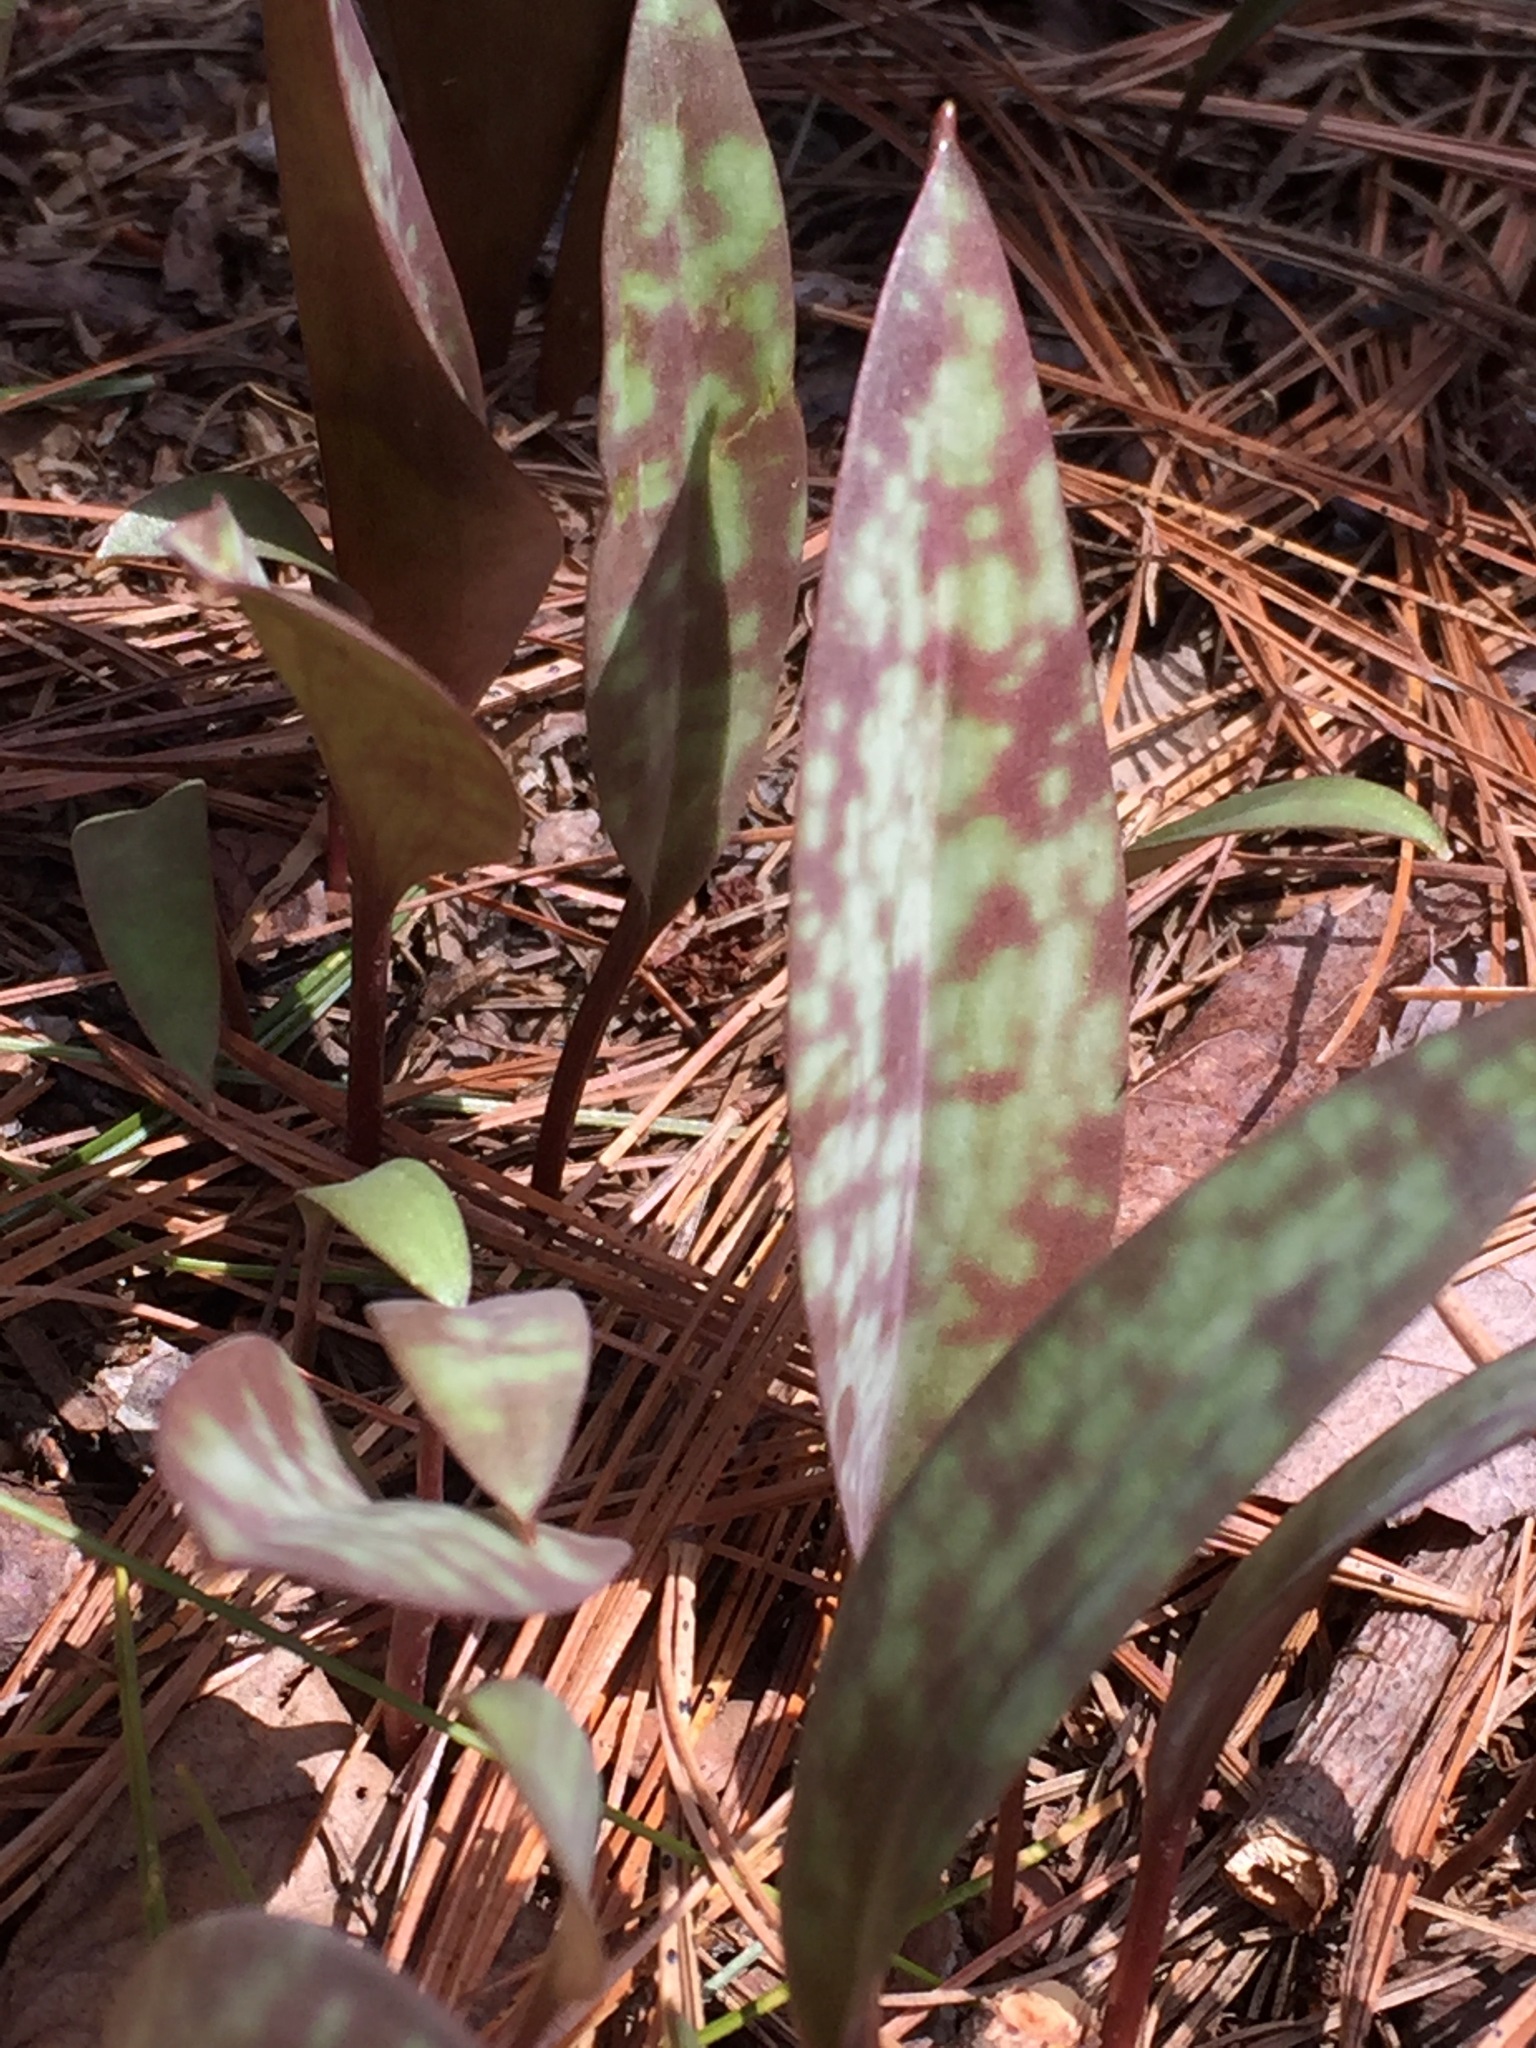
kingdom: Plantae
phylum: Tracheophyta
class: Liliopsida
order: Liliales
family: Liliaceae
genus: Erythronium
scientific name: Erythronium americanum
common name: Yellow adder's-tongue
